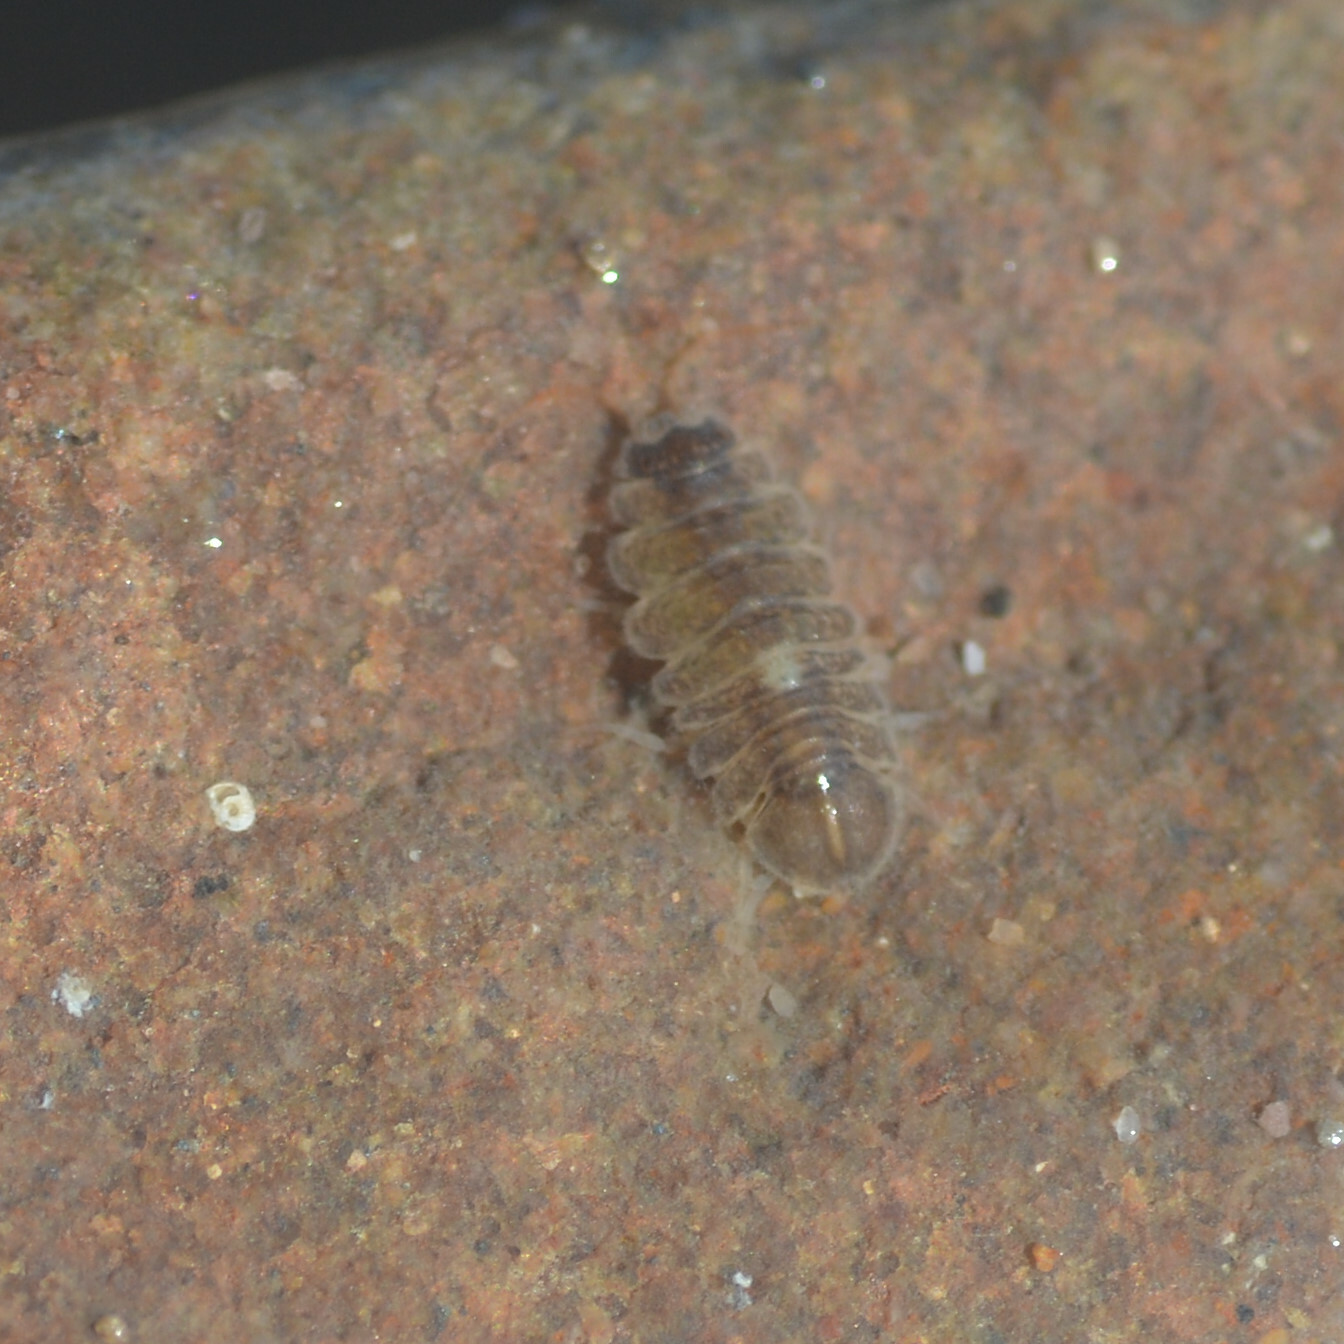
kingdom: Animalia
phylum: Arthropoda
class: Malacostraca
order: Isopoda
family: Janiridae
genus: Jaera
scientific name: Jaera
